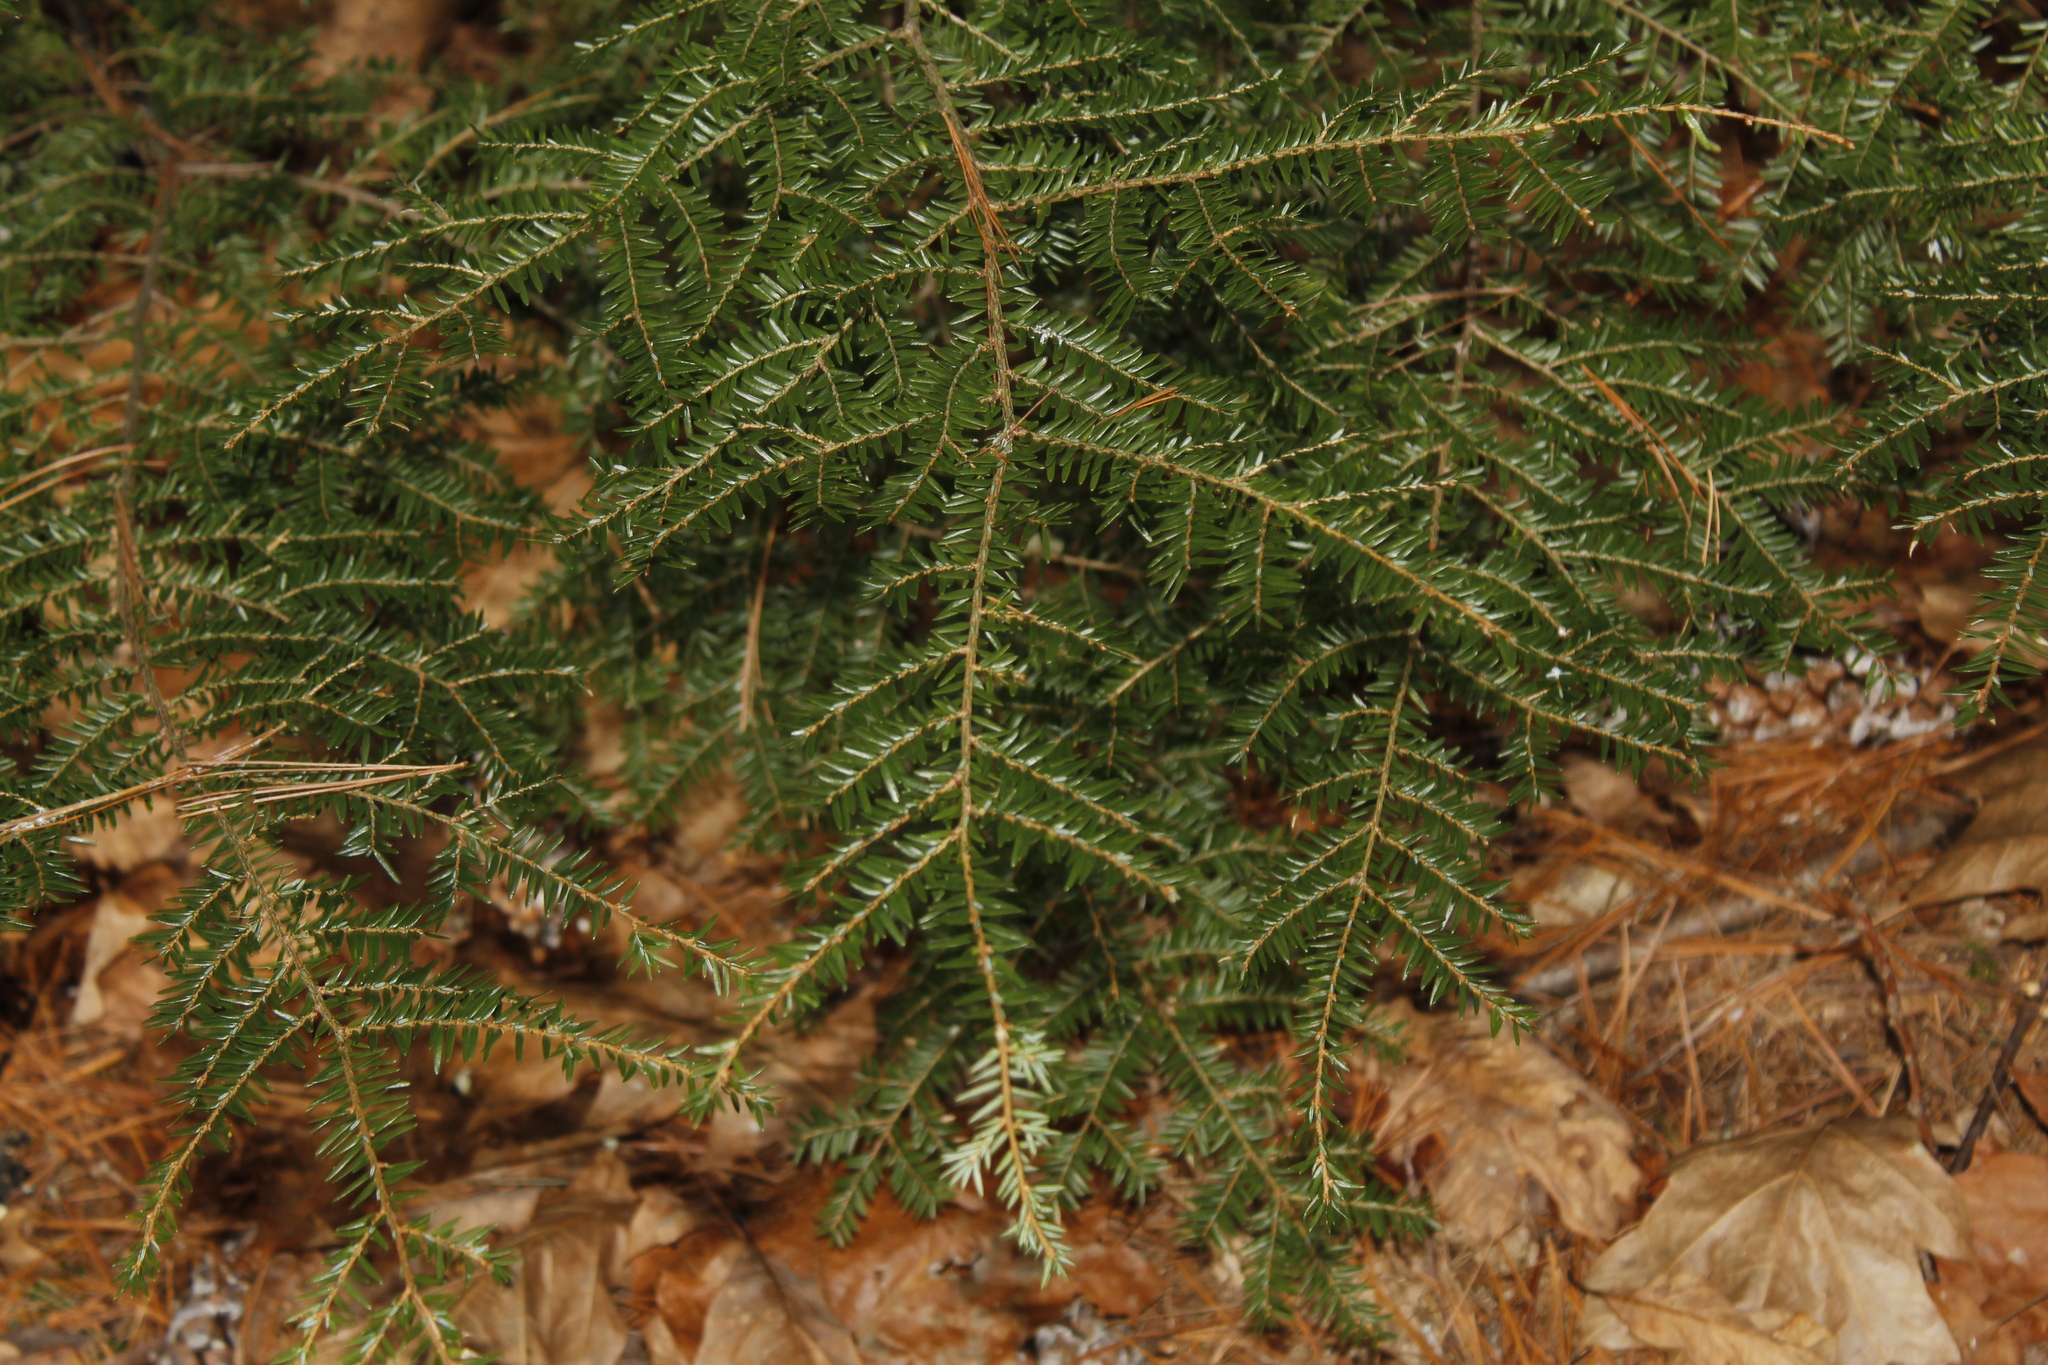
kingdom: Plantae
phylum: Tracheophyta
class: Pinopsida
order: Pinales
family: Pinaceae
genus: Tsuga
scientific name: Tsuga canadensis
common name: Eastern hemlock
